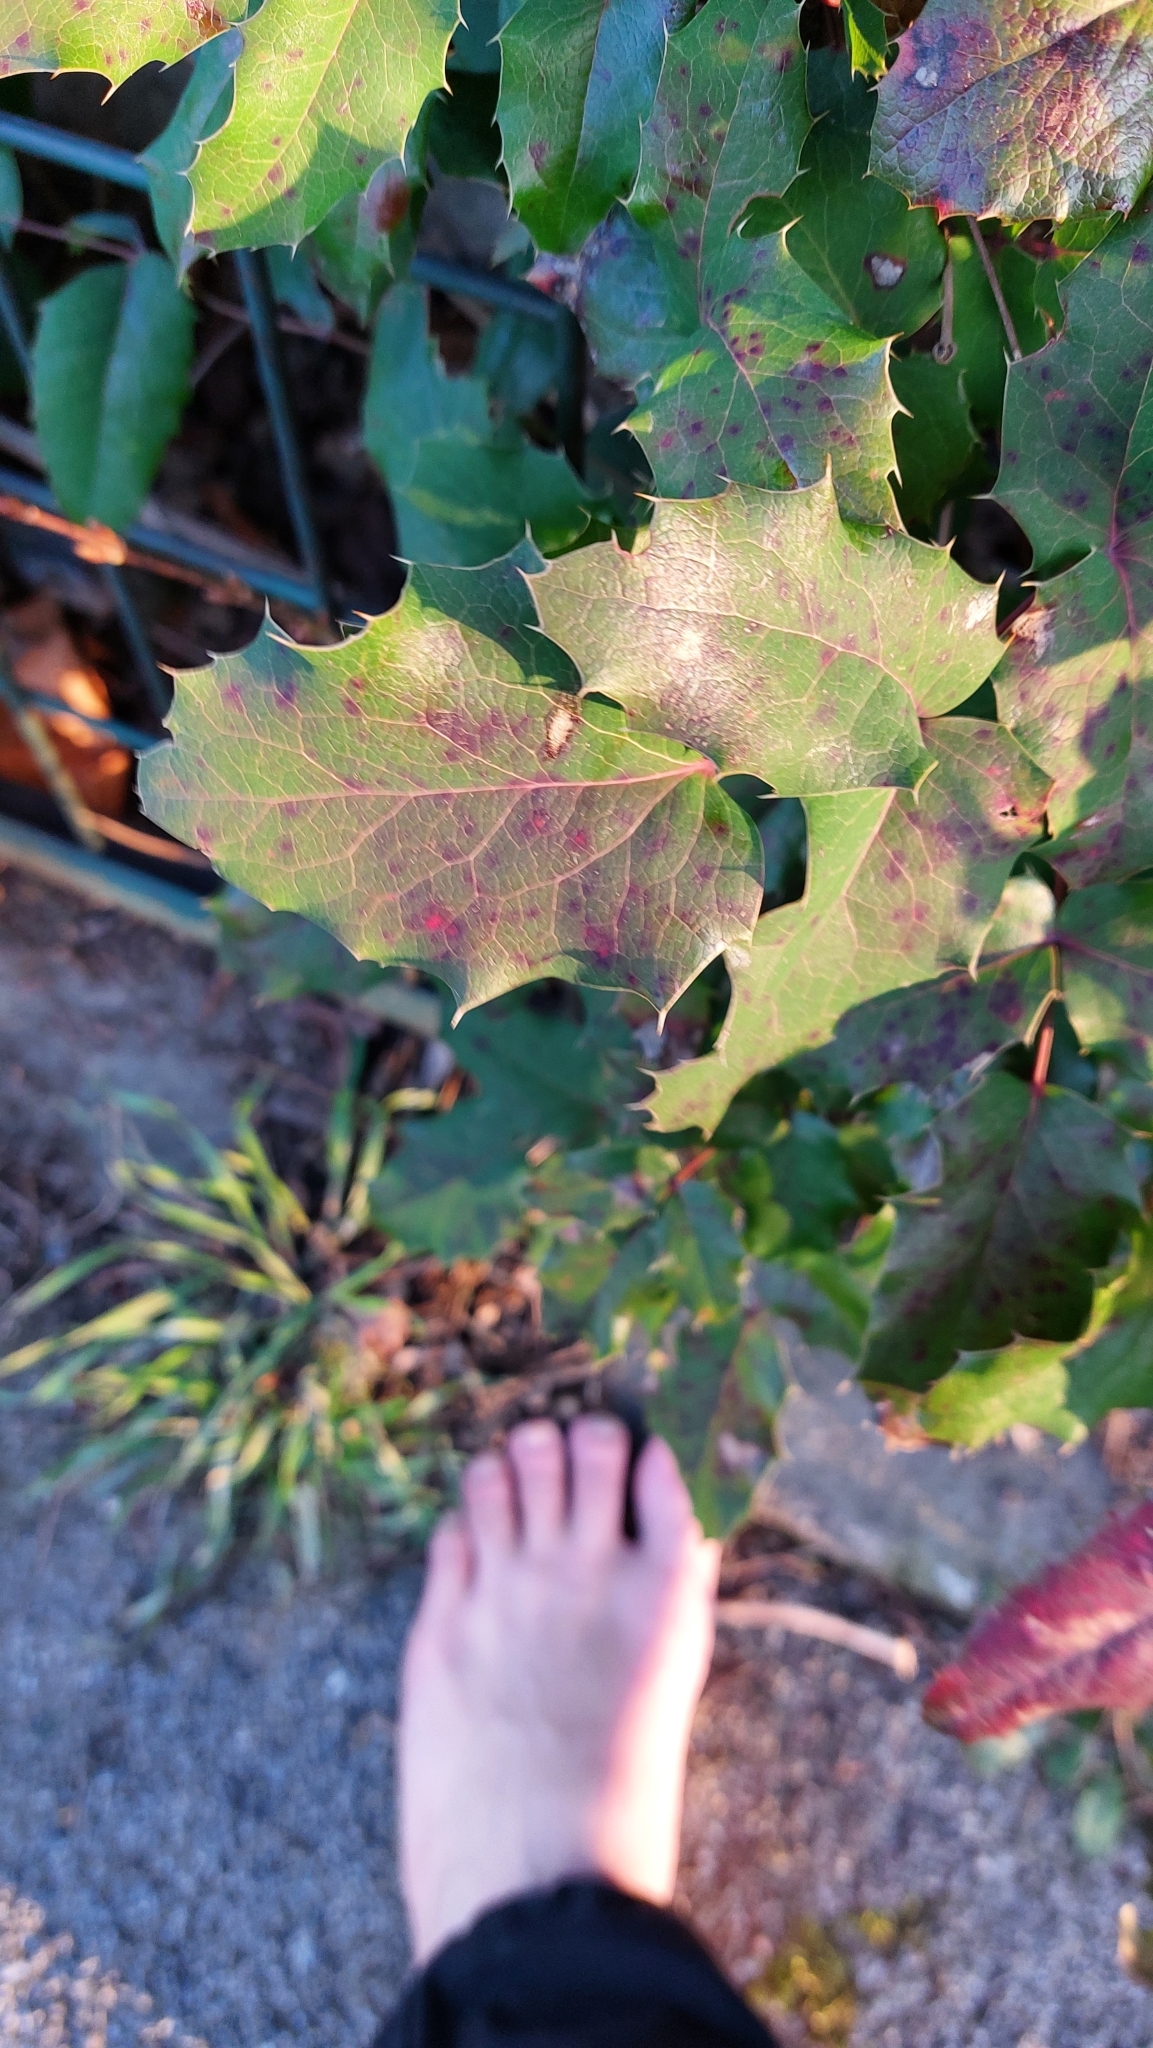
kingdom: Plantae
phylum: Tracheophyta
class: Magnoliopsida
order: Ranunculales
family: Berberidaceae
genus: Mahonia
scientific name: Mahonia aquifolium
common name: Oregon-grape
